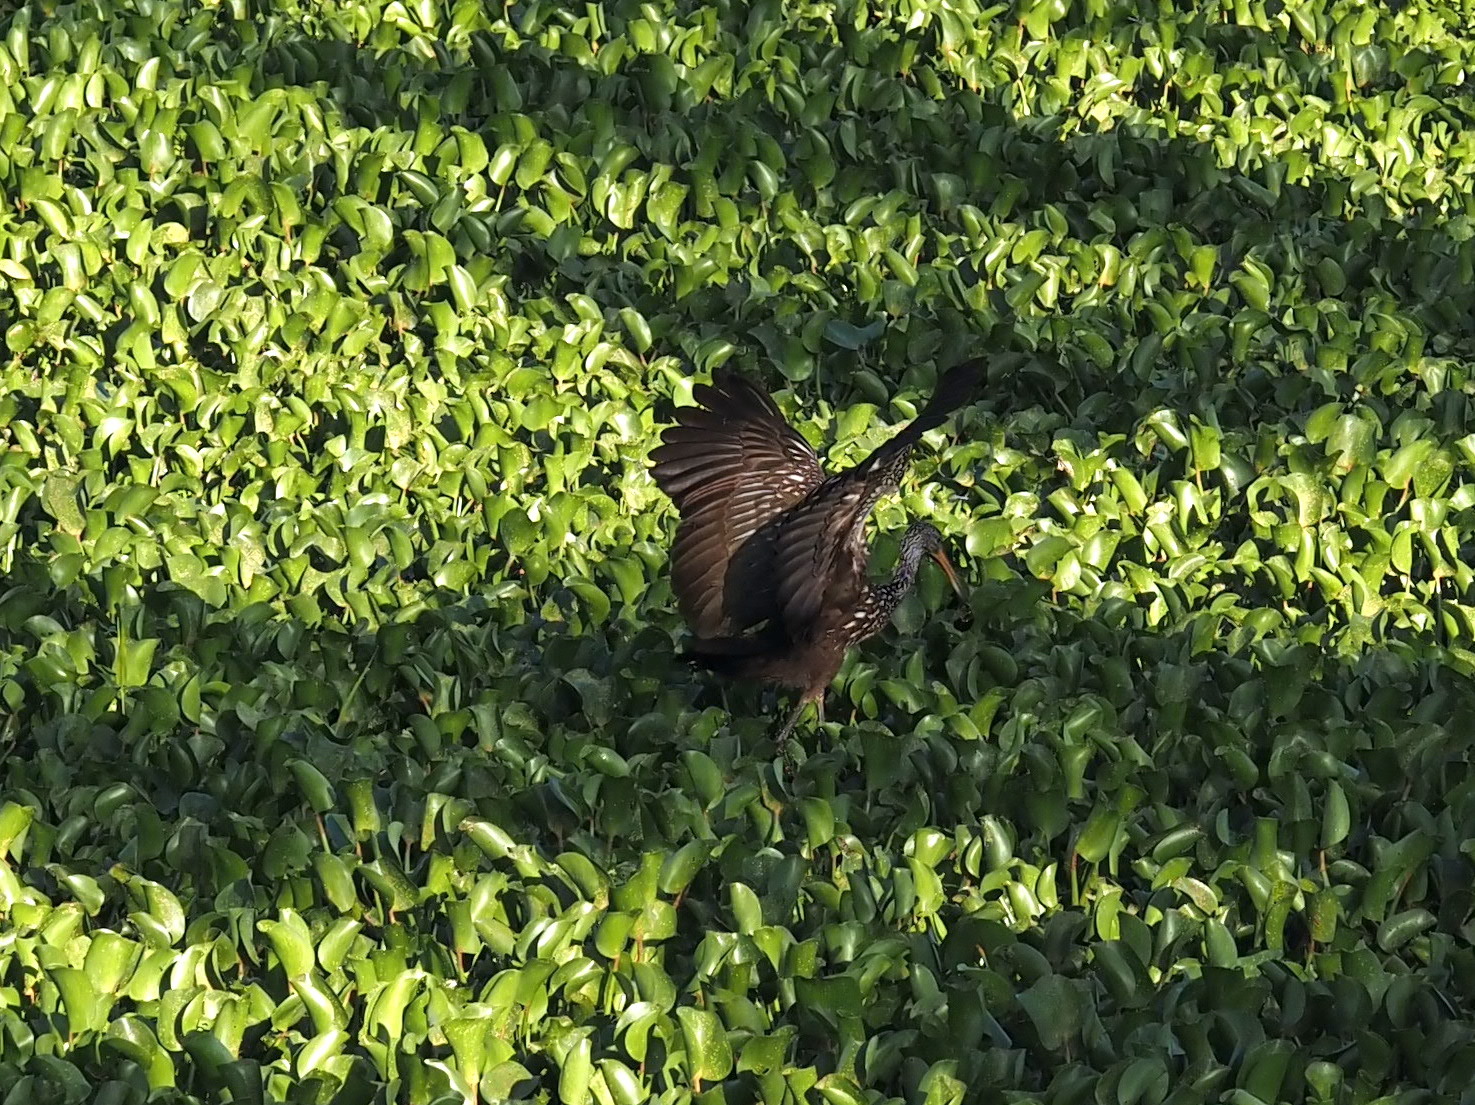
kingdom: Animalia
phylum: Chordata
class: Aves
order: Gruiformes
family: Aramidae
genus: Aramus
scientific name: Aramus guarauna
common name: Limpkin
